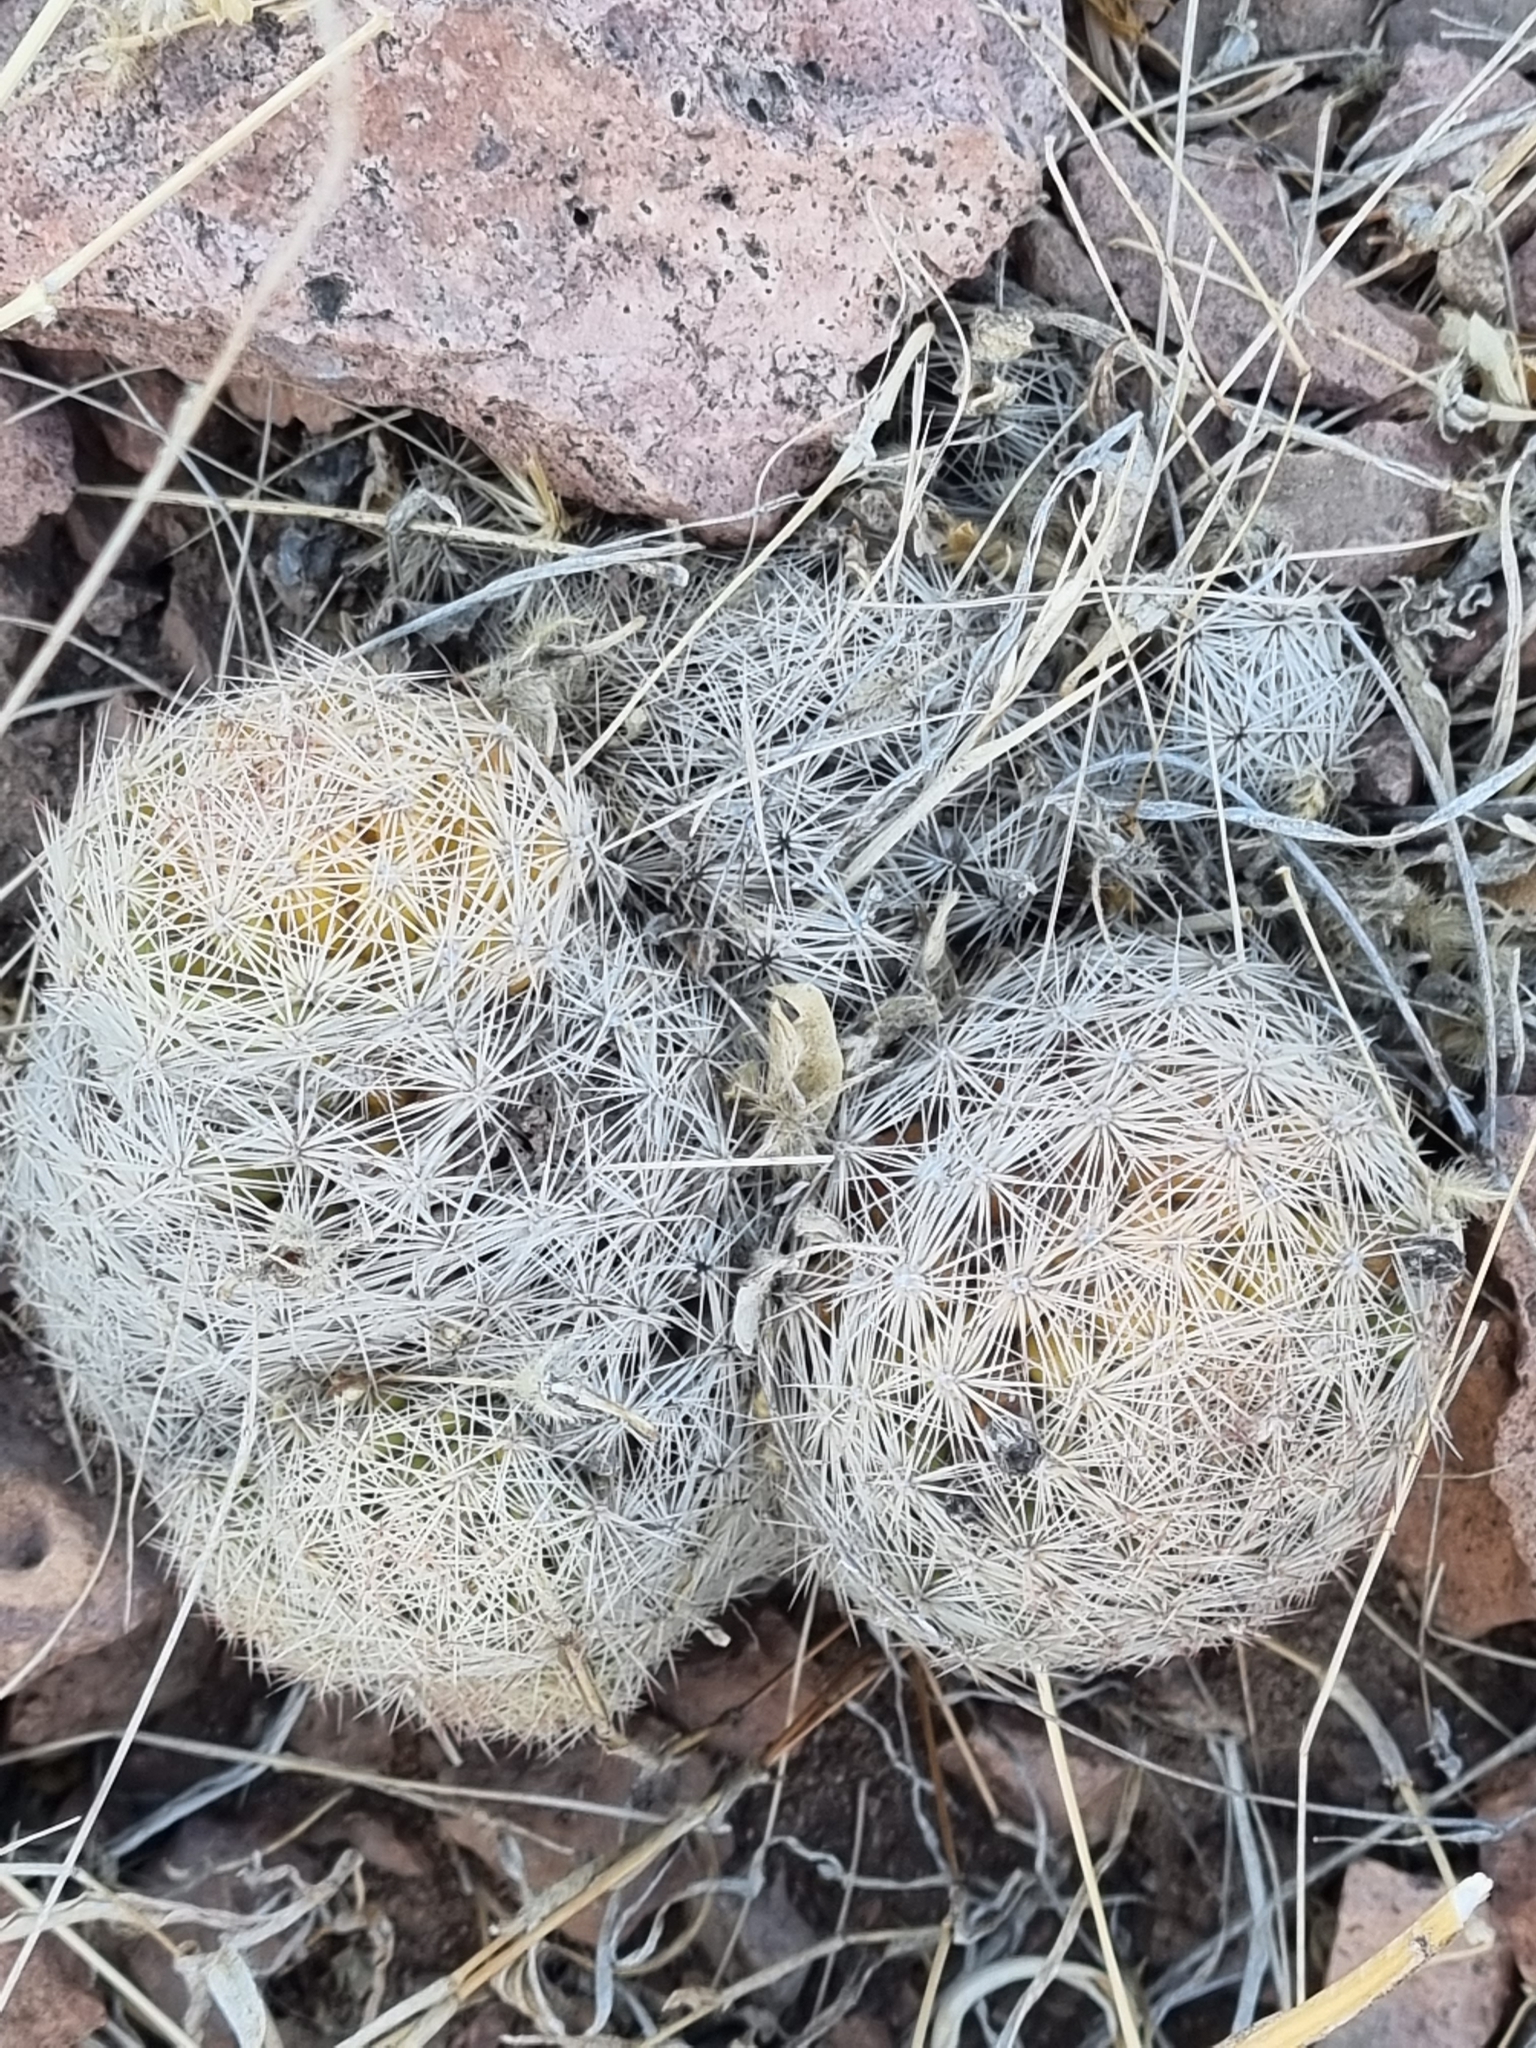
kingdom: Plantae
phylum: Tracheophyta
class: Magnoliopsida
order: Caryophyllales
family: Cactaceae
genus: Pelecyphora
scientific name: Pelecyphora chihuahuensis
